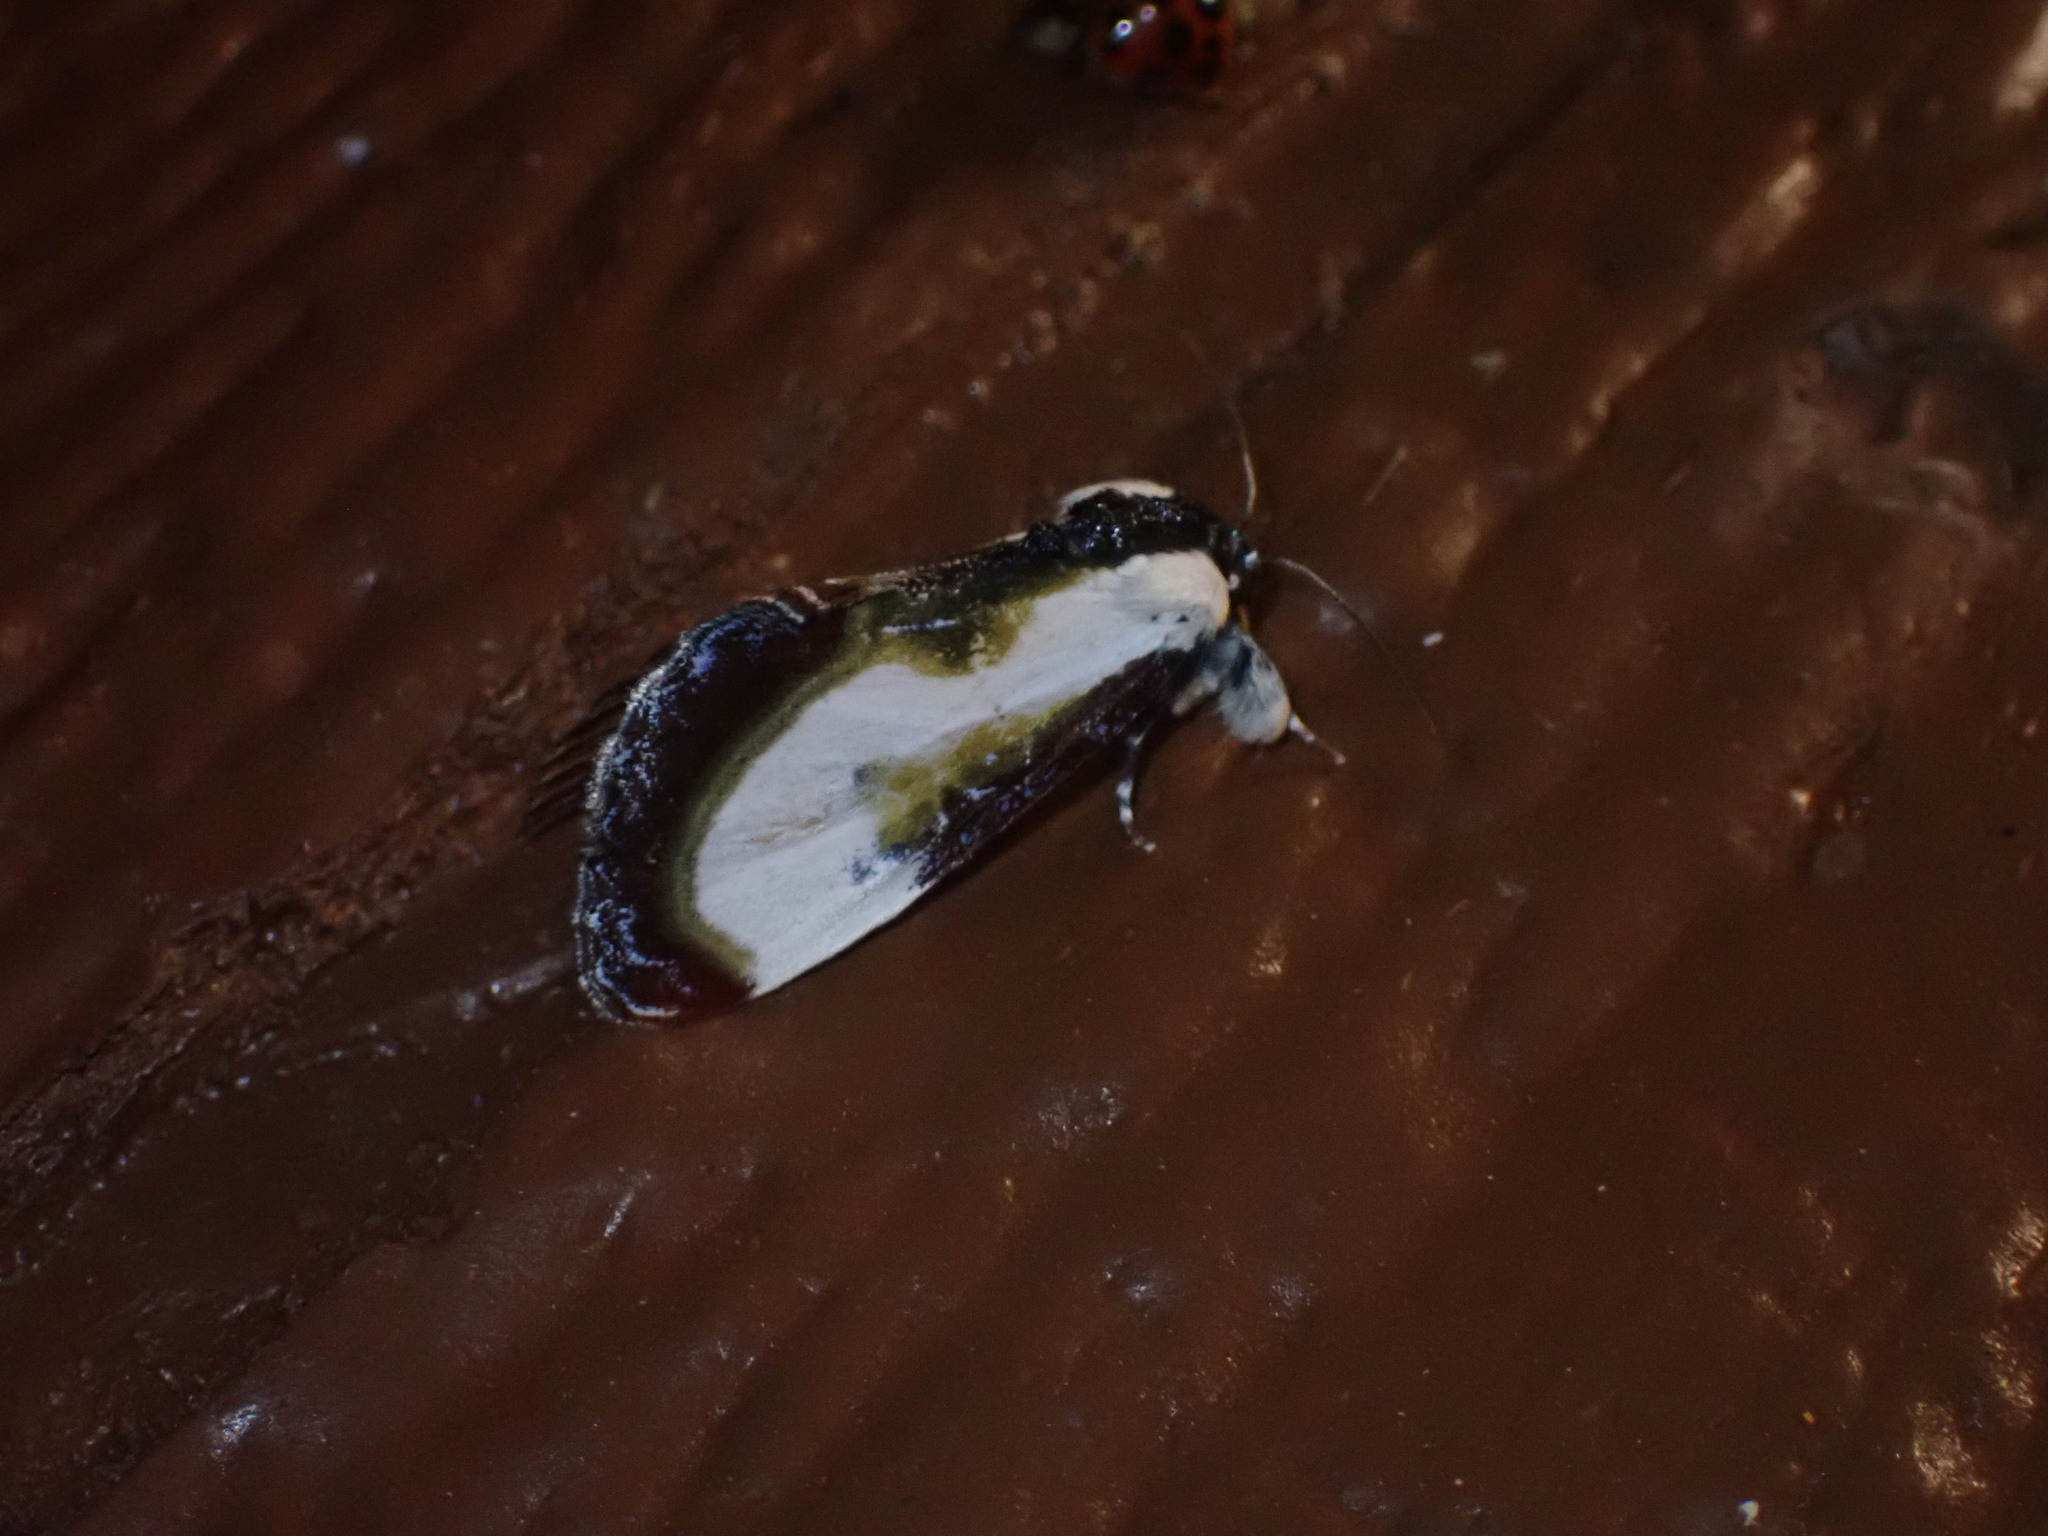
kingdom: Animalia
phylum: Arthropoda
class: Insecta
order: Lepidoptera
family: Noctuidae
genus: Eudryas
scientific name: Eudryas grata
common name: Beautiful wood-nymph
